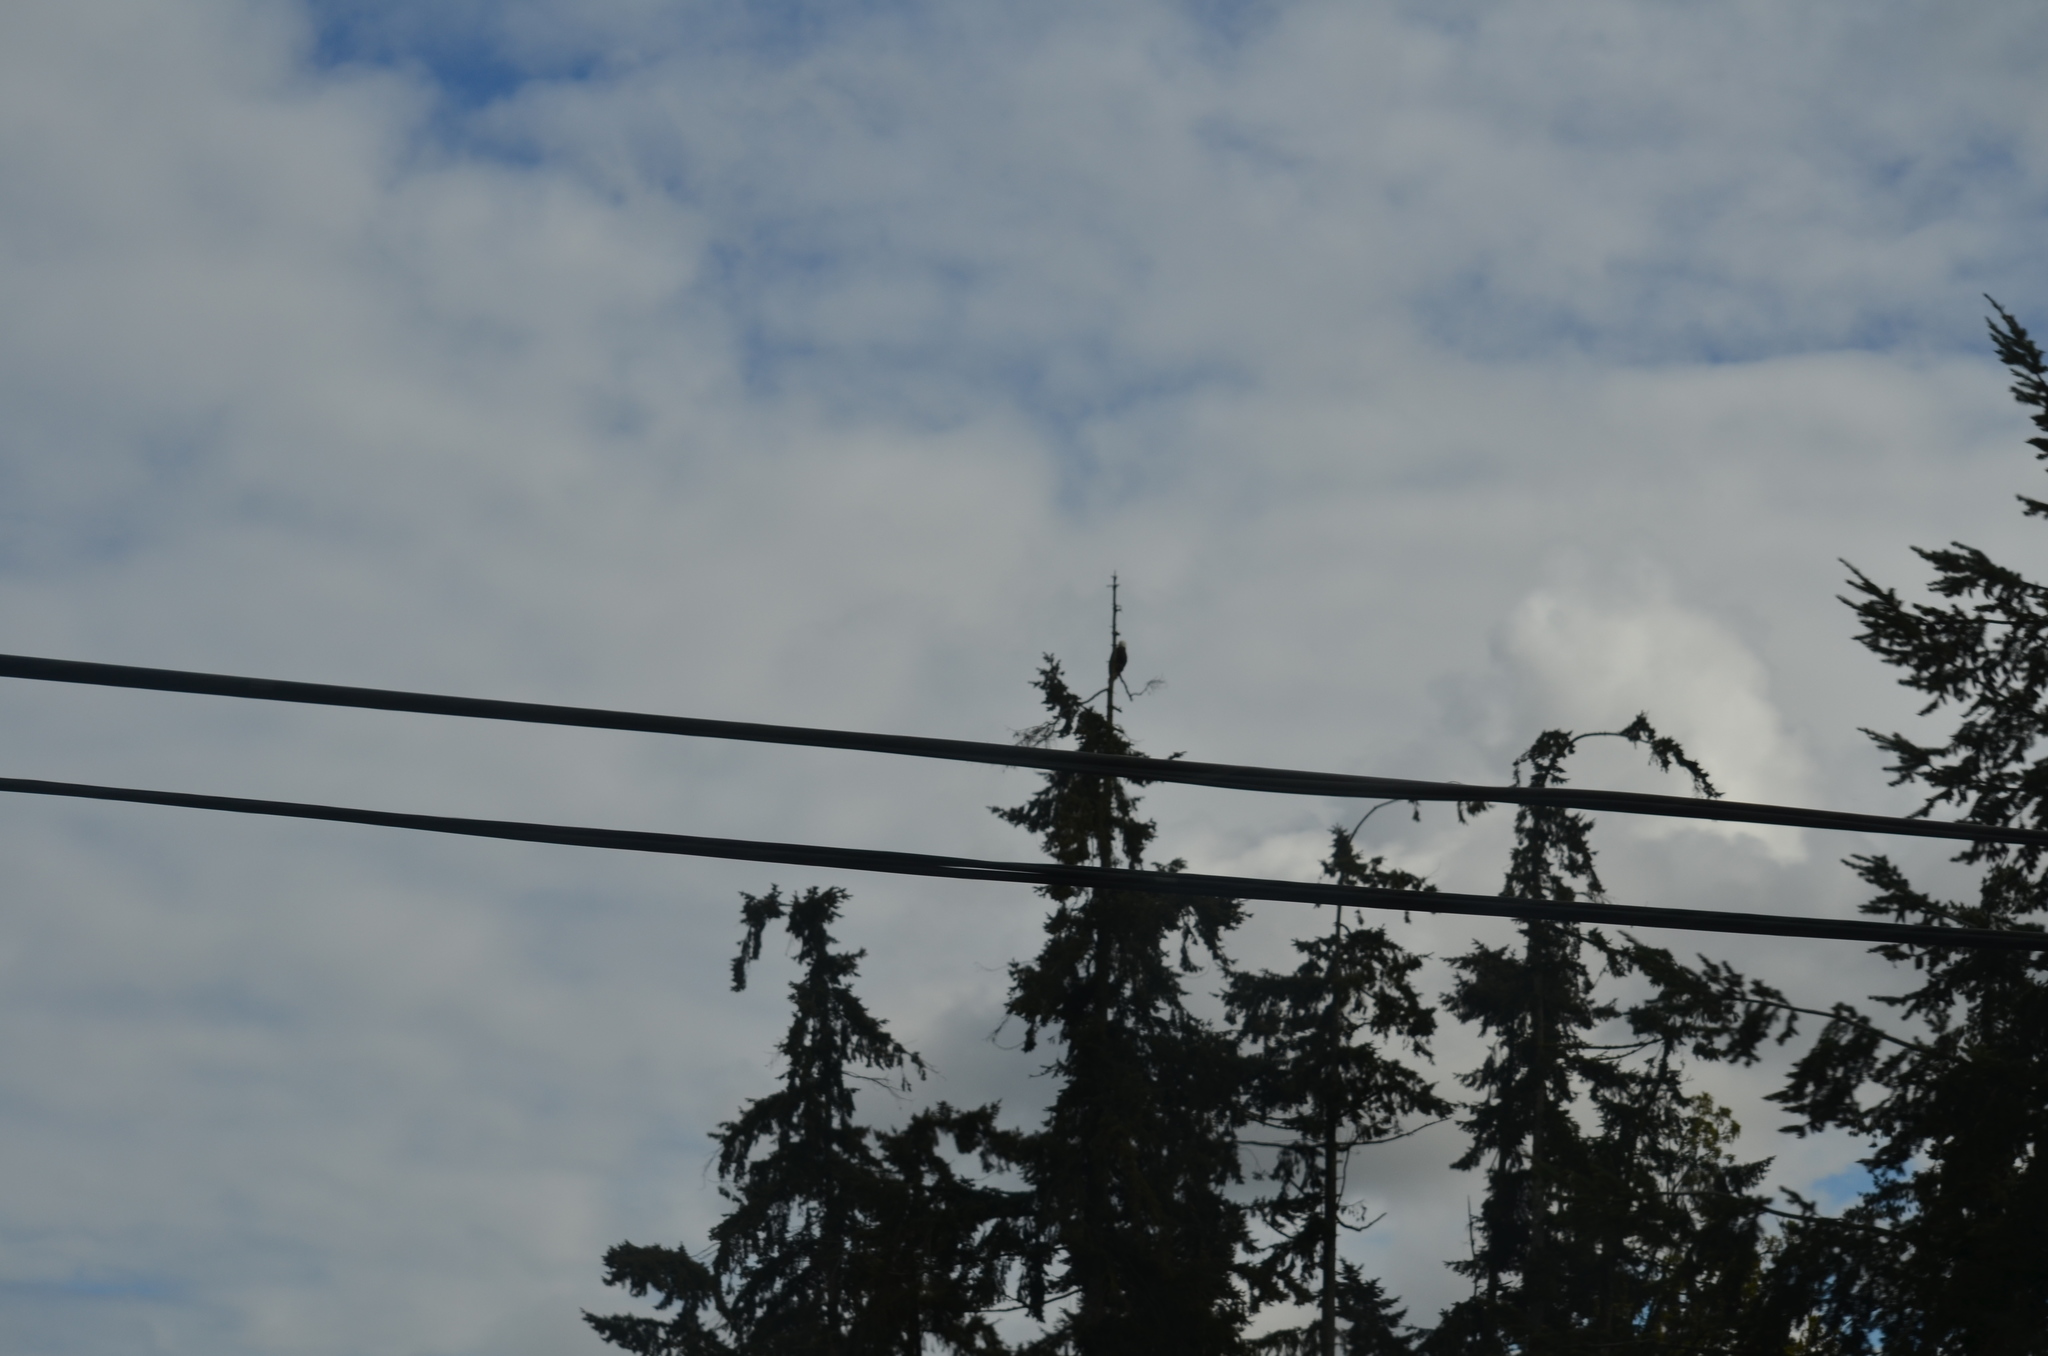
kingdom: Animalia
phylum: Chordata
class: Aves
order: Accipitriformes
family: Accipitridae
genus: Haliaeetus
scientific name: Haliaeetus leucocephalus
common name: Bald eagle
